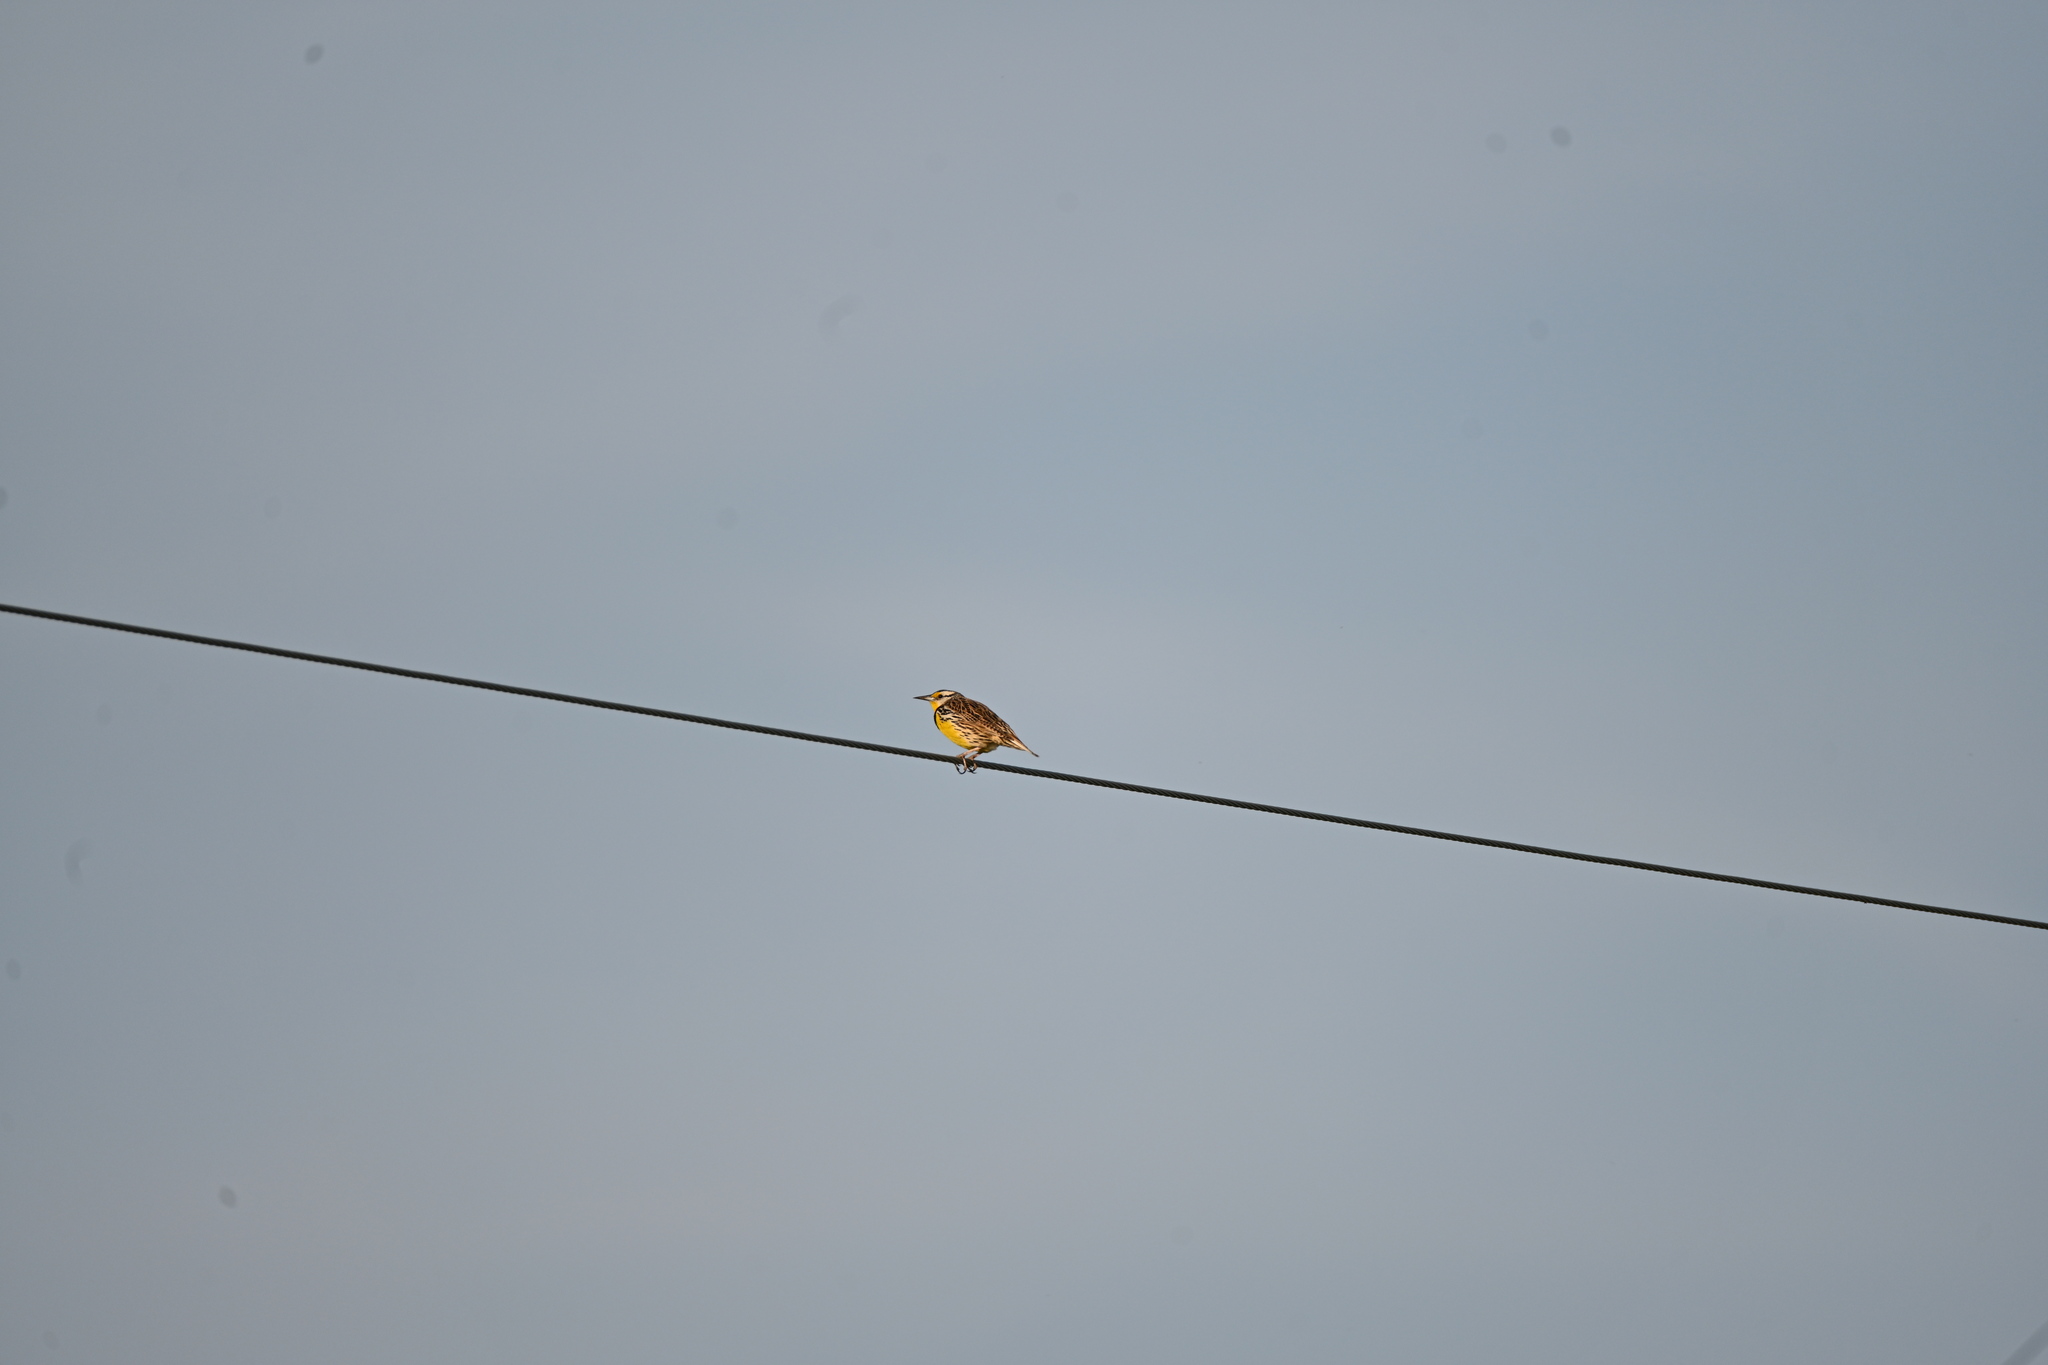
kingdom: Animalia
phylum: Chordata
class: Aves
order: Passeriformes
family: Icteridae
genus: Sturnella
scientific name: Sturnella magna
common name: Eastern meadowlark
